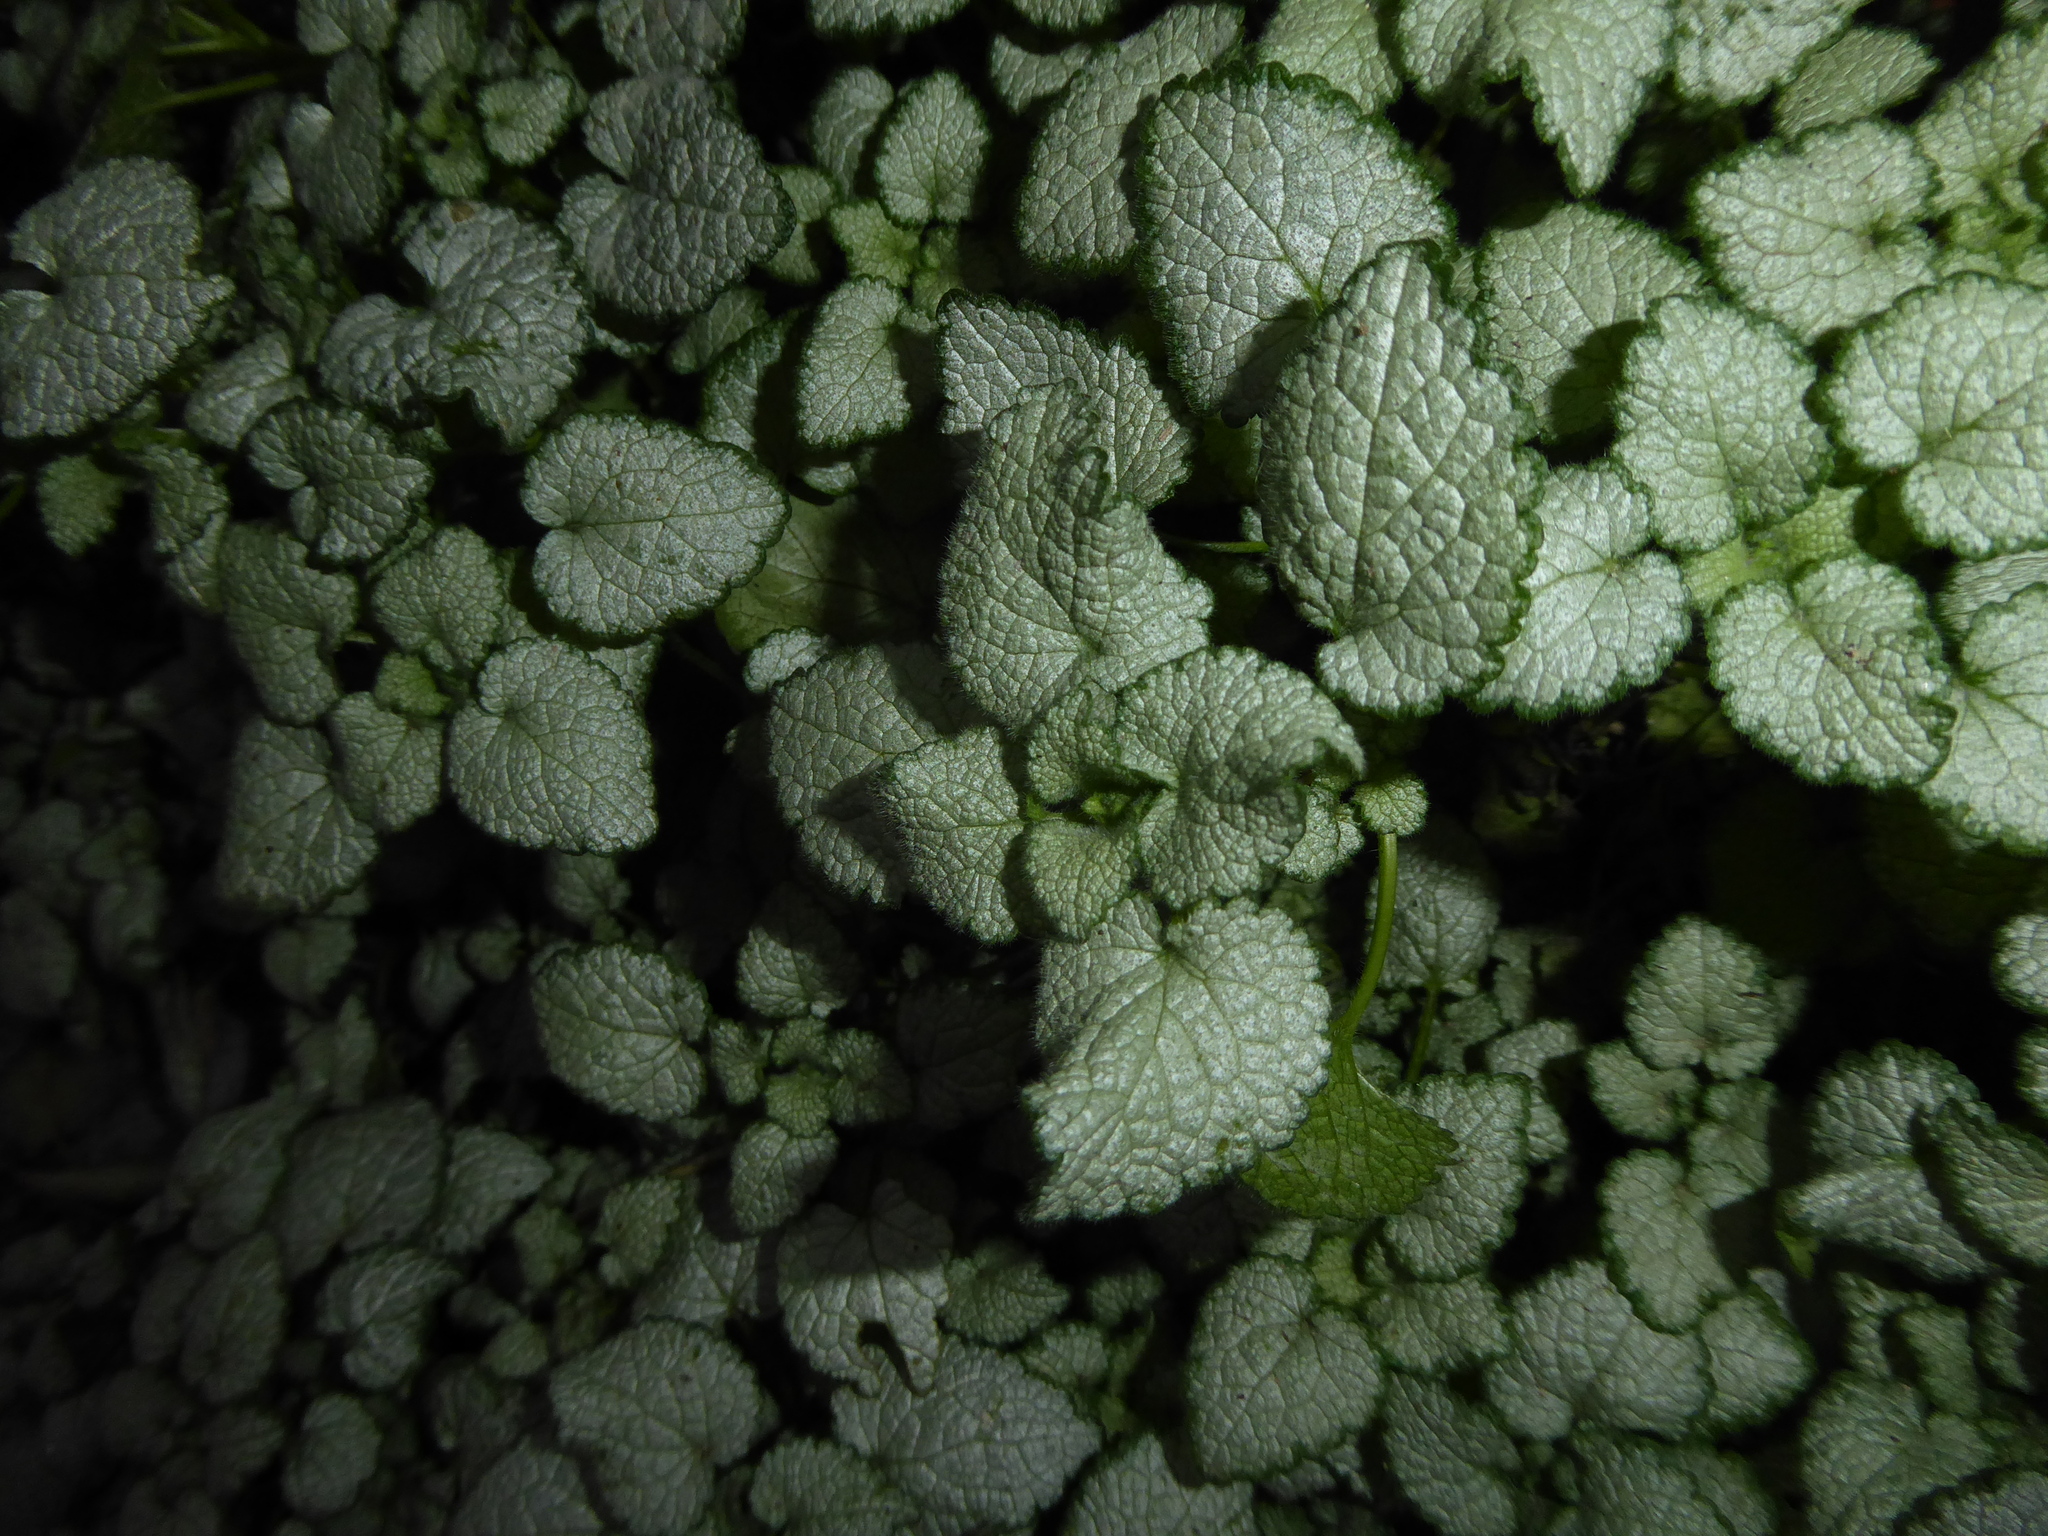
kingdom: Plantae
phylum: Tracheophyta
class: Magnoliopsida
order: Lamiales
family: Lamiaceae
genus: Lamium
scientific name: Lamium maculatum
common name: Spotted dead-nettle
